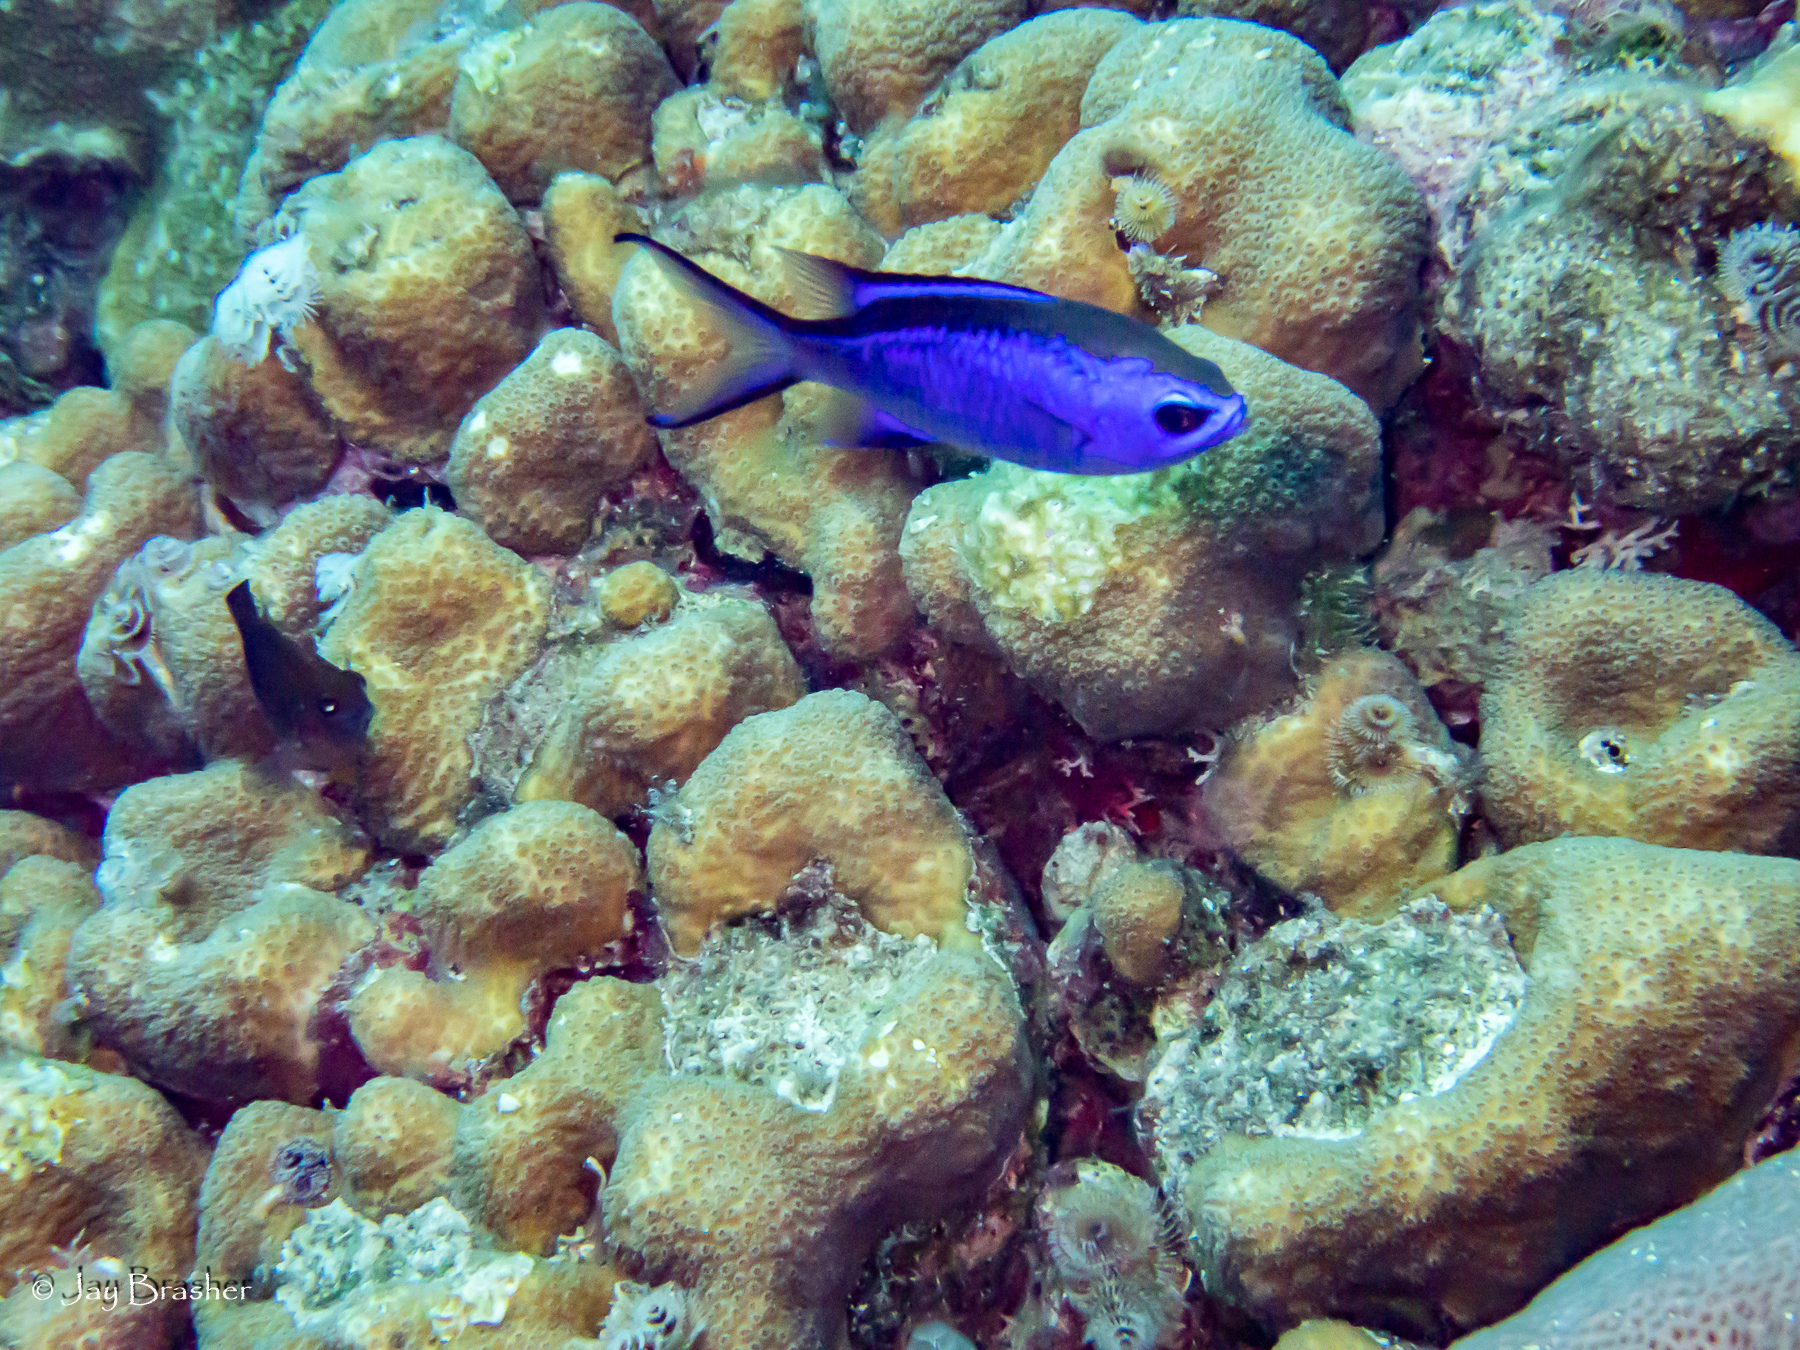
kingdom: Animalia
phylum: Chordata
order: Perciformes
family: Pomacentridae
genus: Chromis
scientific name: Chromis cyanea
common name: Blue chromis
